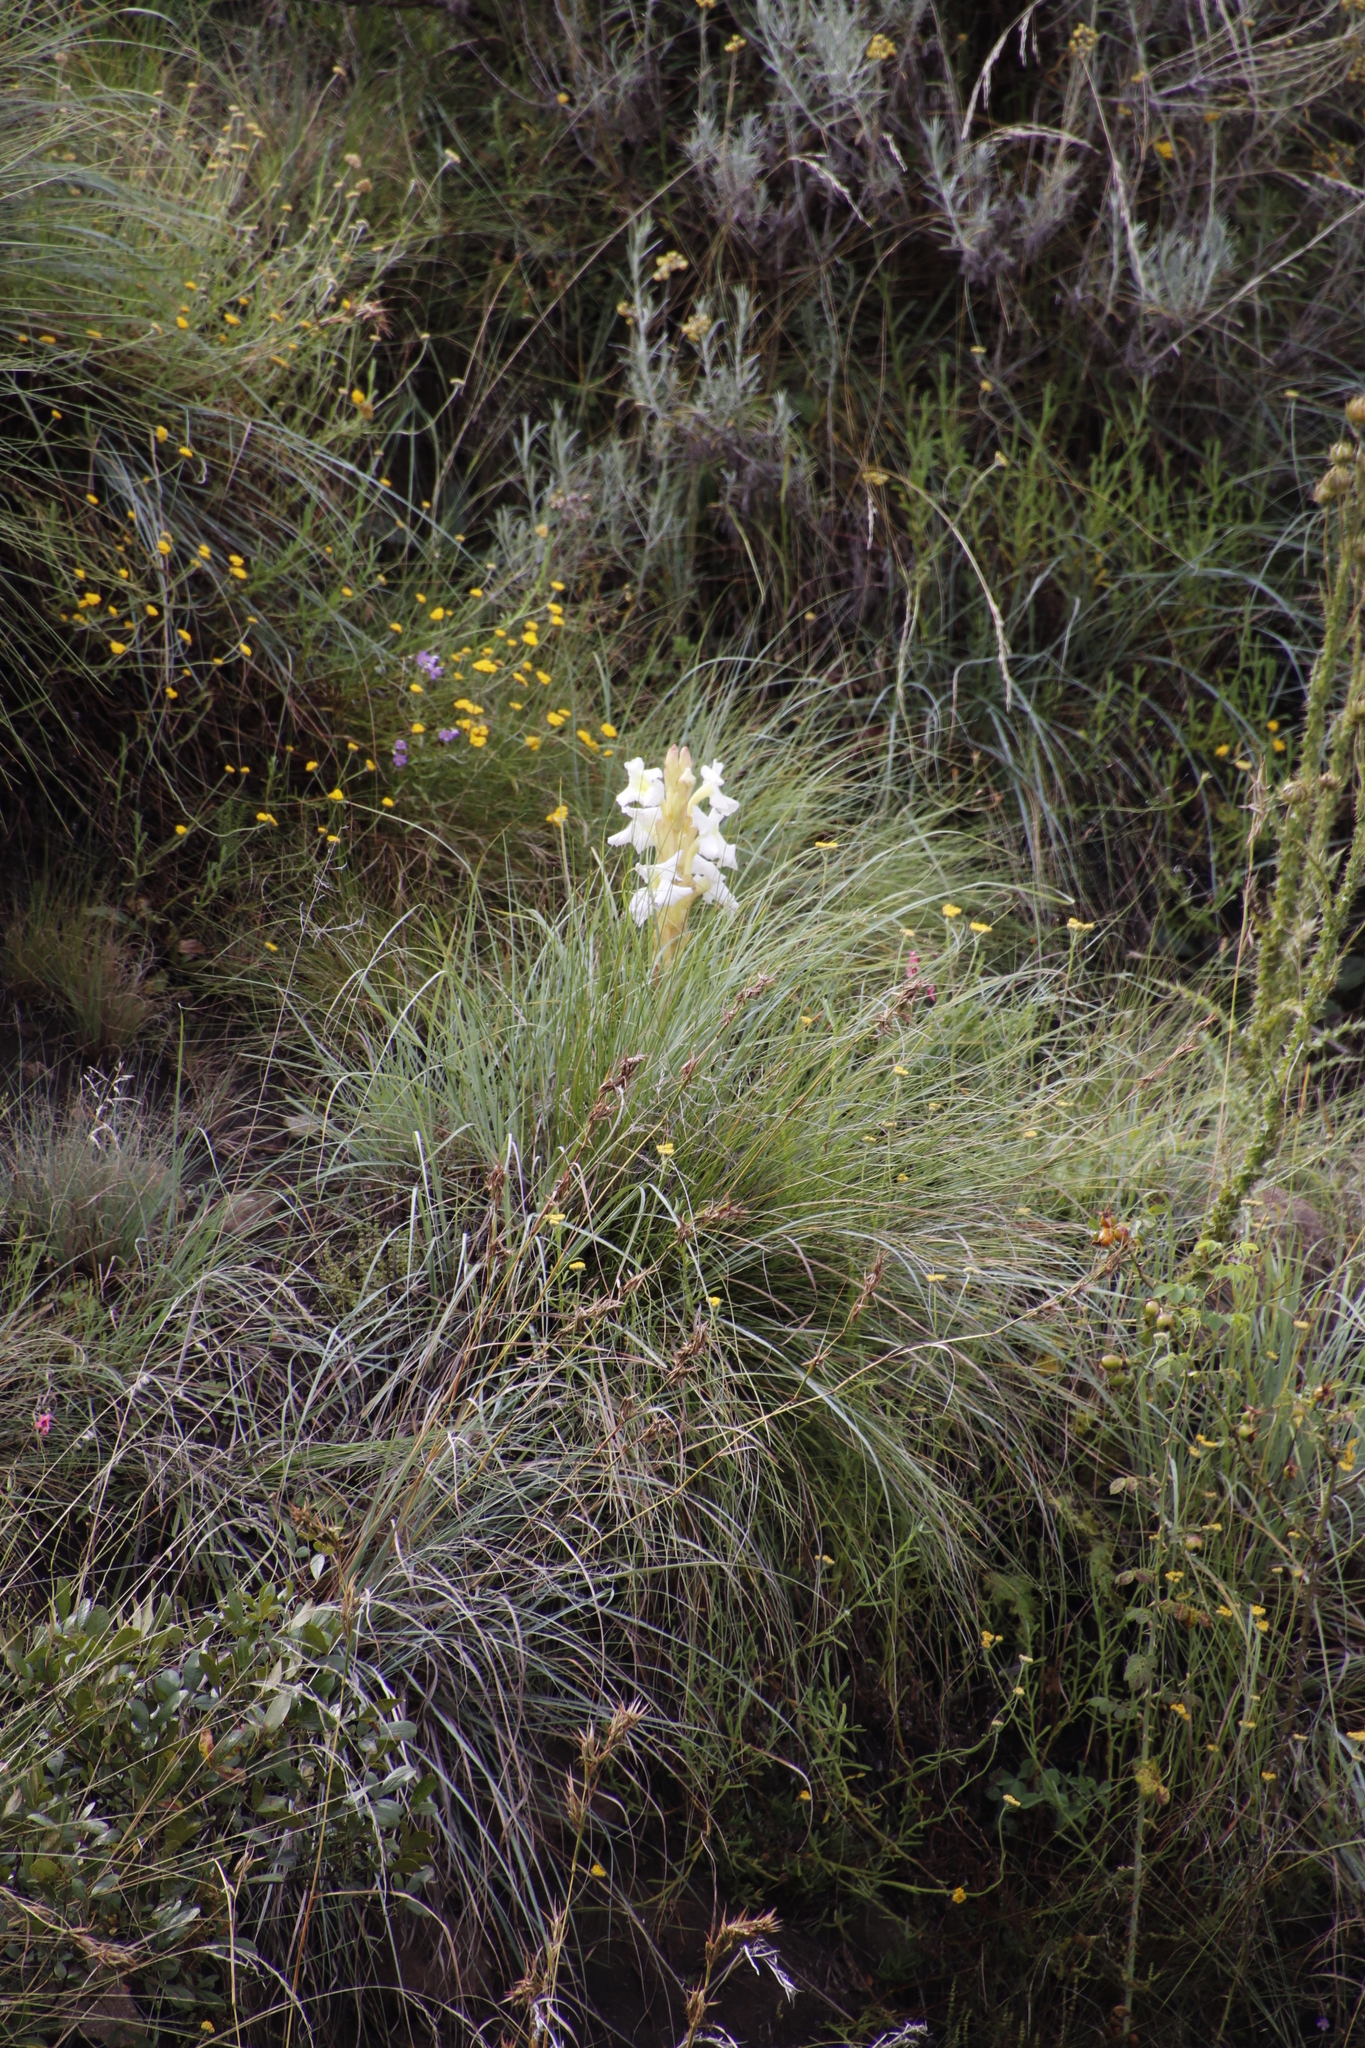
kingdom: Plantae
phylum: Tracheophyta
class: Magnoliopsida
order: Lamiales
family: Orobanchaceae
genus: Harveya
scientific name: Harveya speciosa
